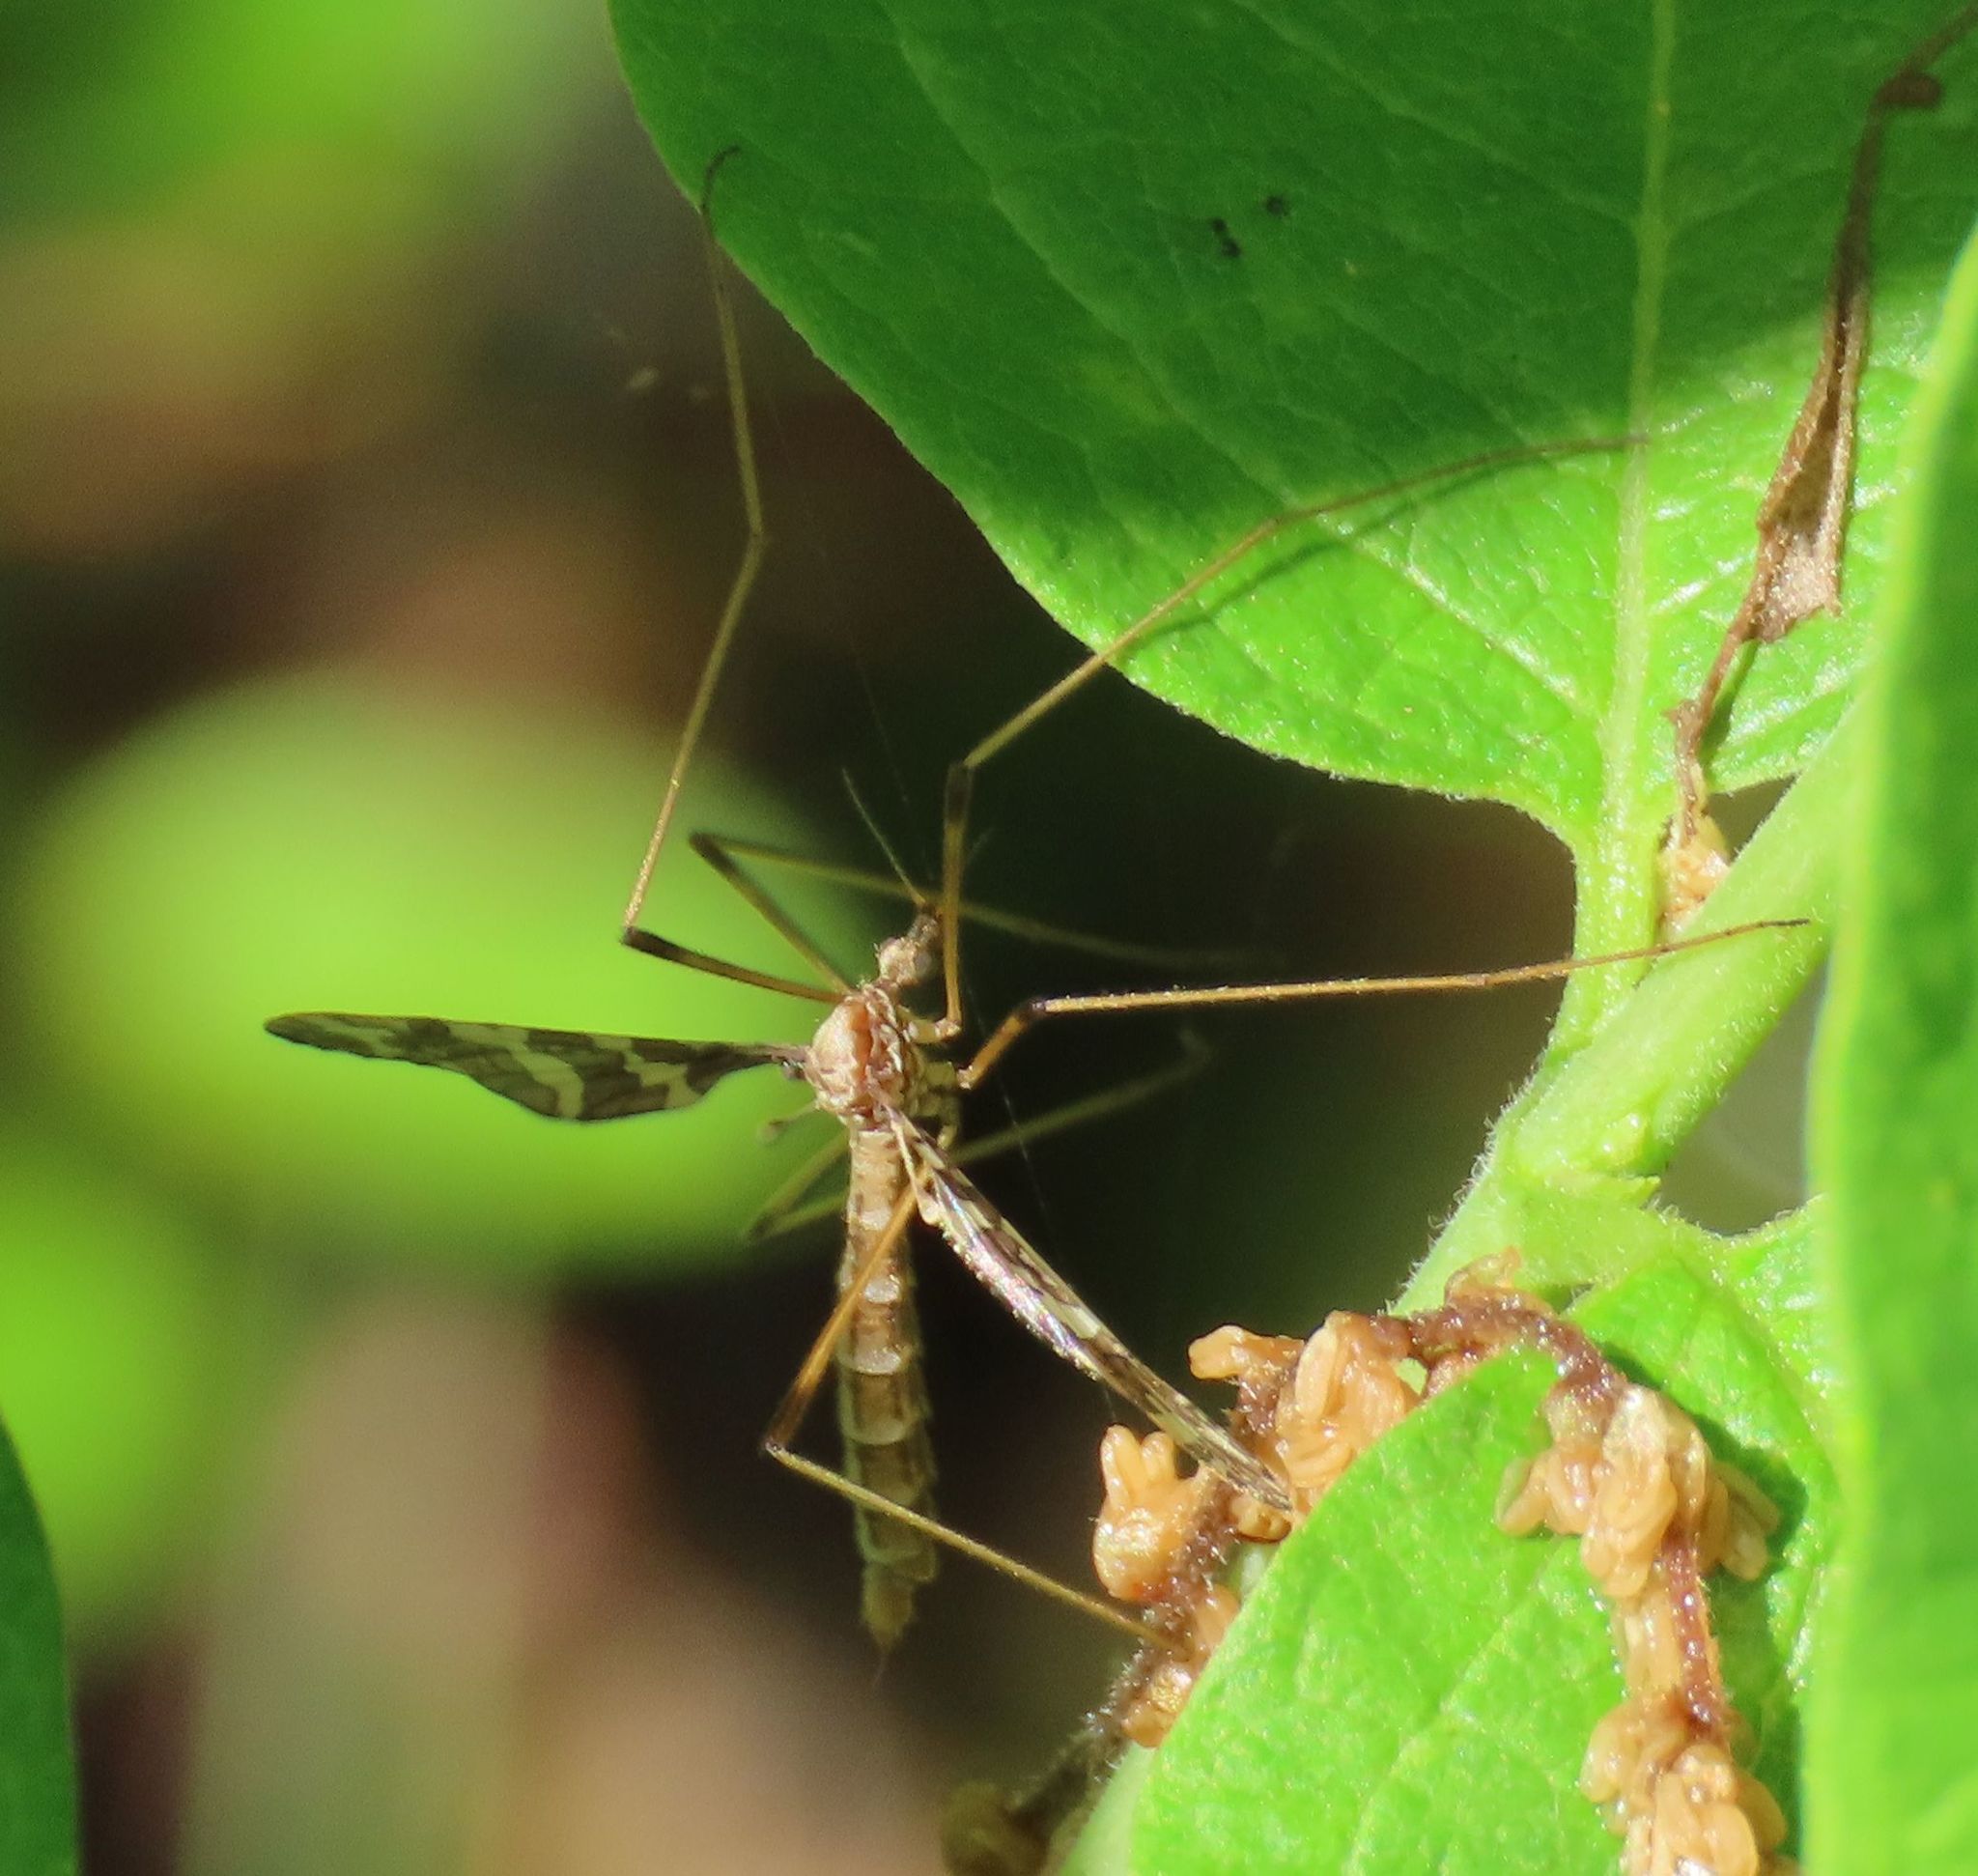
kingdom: Animalia
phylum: Arthropoda
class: Insecta
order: Diptera
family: Limoniidae
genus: Epiphragma
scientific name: Epiphragma fasciapenne
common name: Band-winged crane fly
